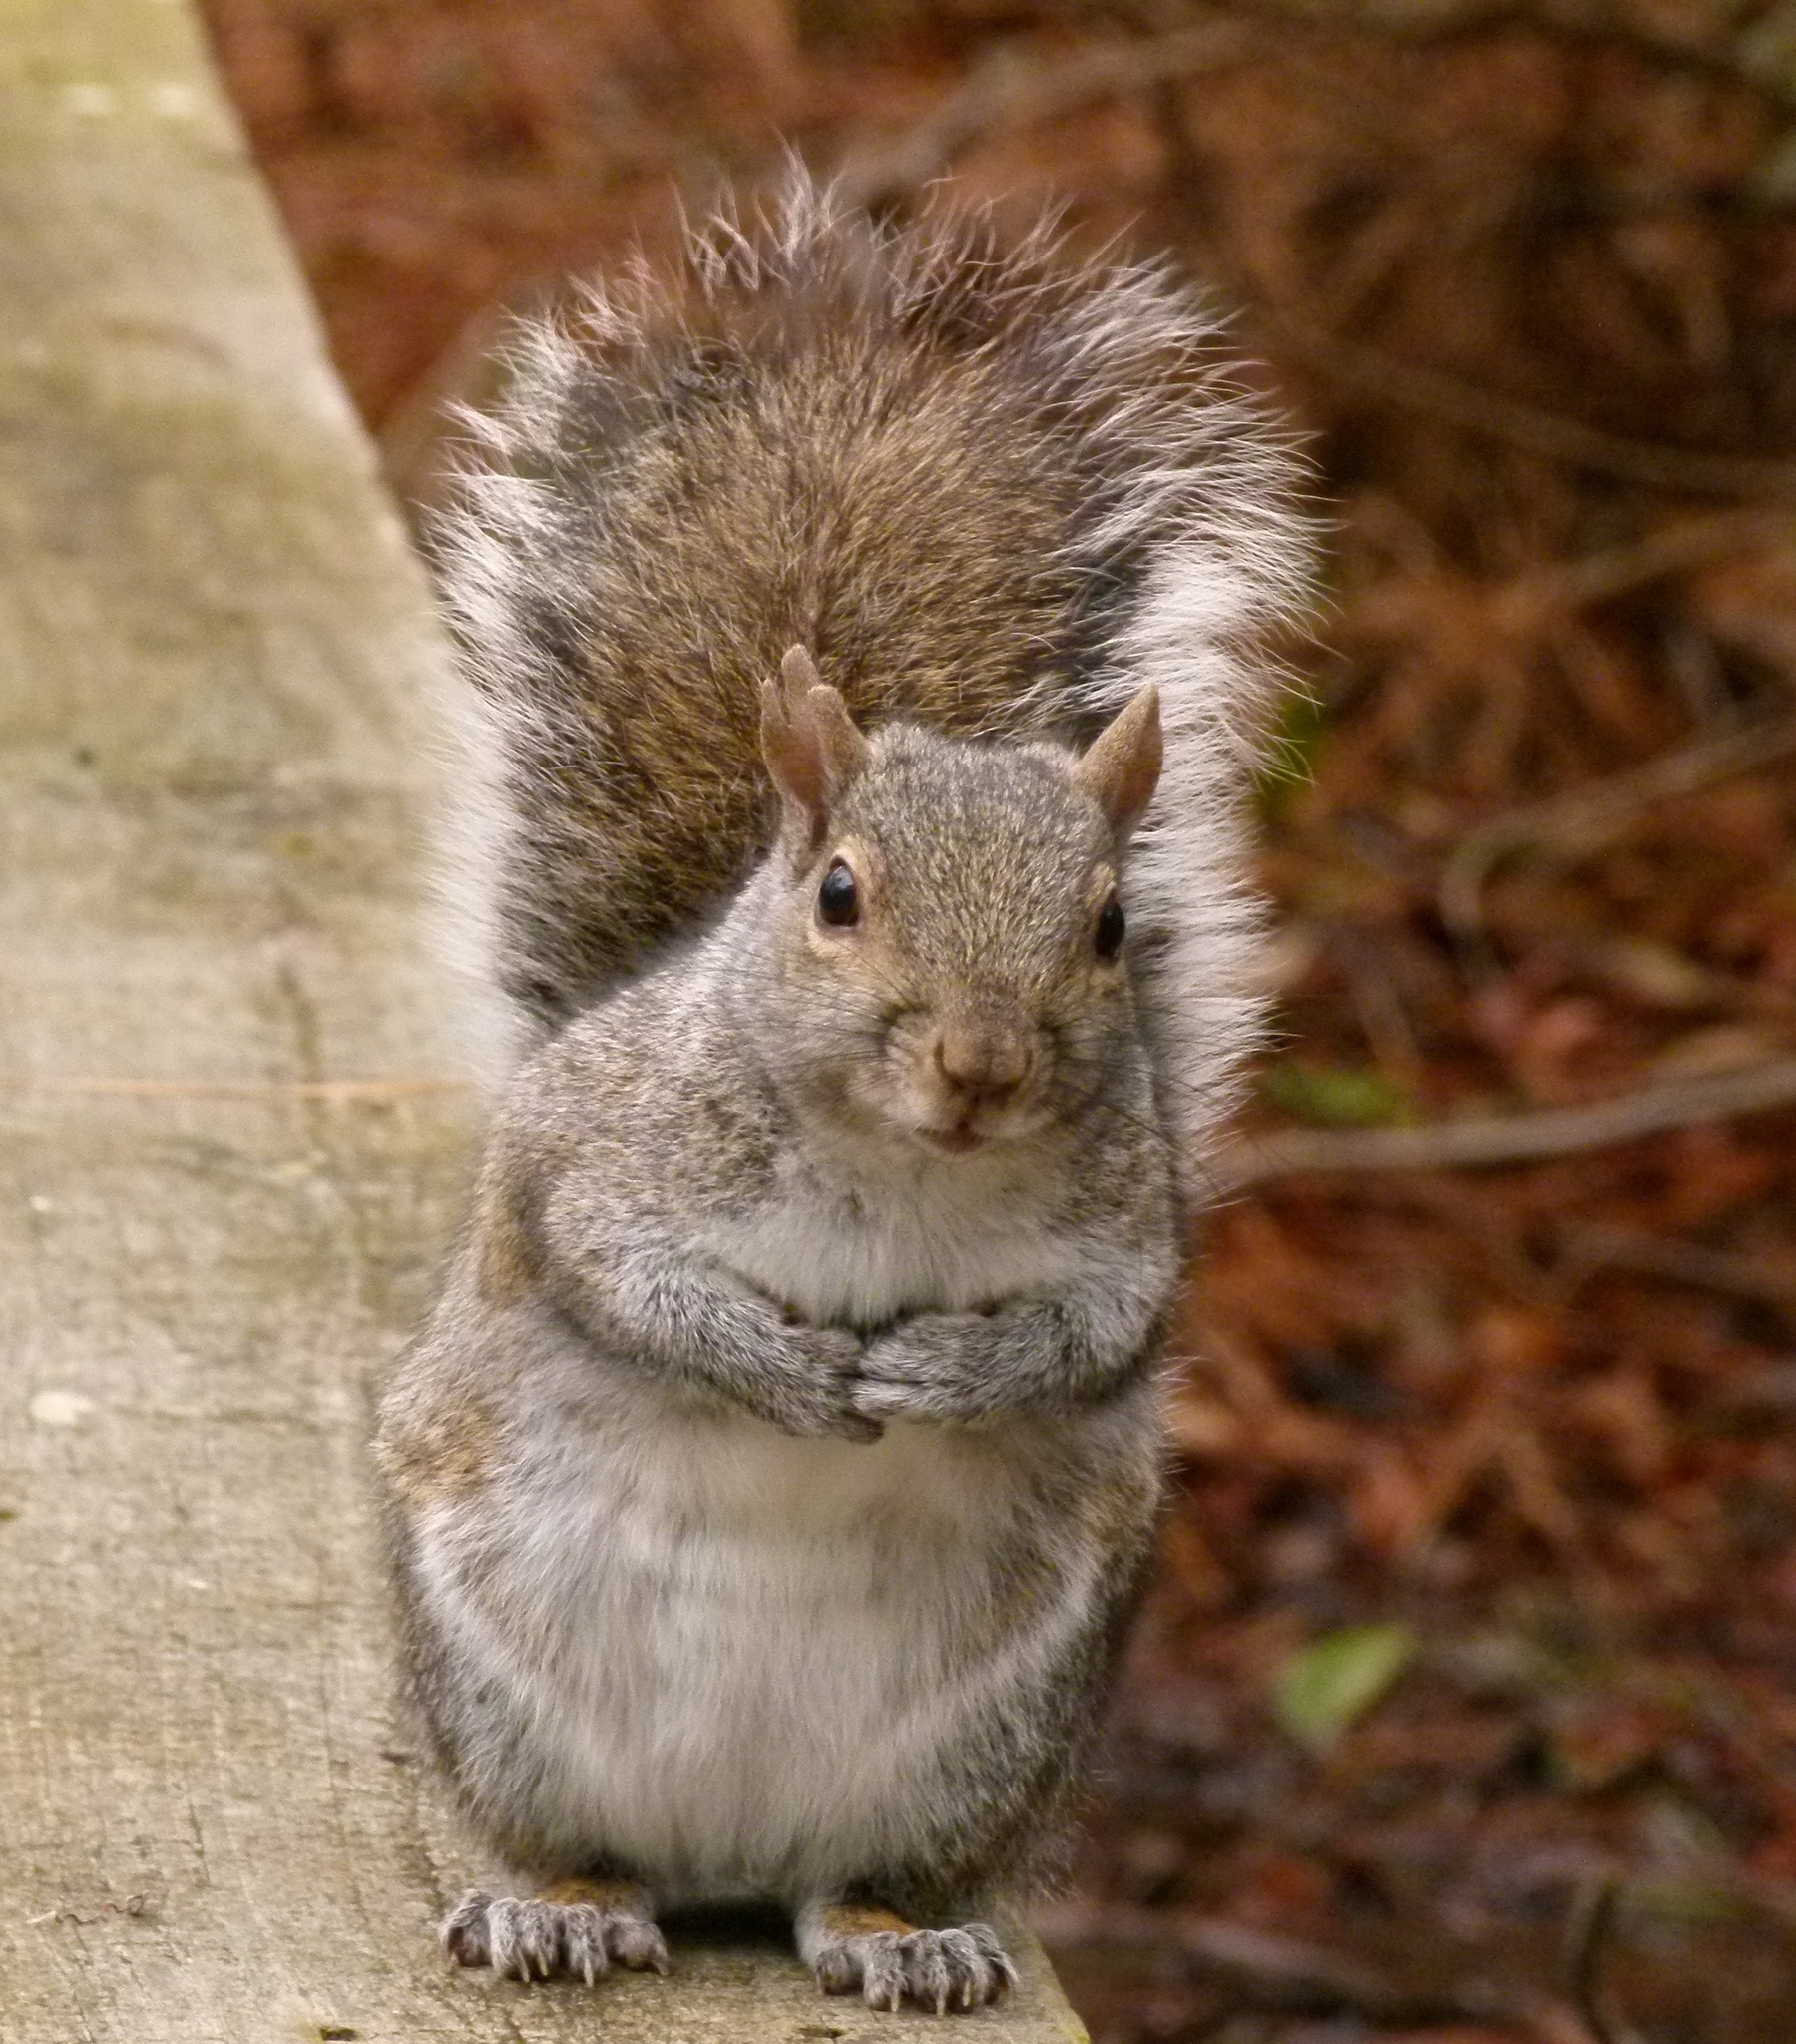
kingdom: Animalia
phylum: Chordata
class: Mammalia
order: Rodentia
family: Sciuridae
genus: Sciurus
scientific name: Sciurus carolinensis
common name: Eastern gray squirrel
